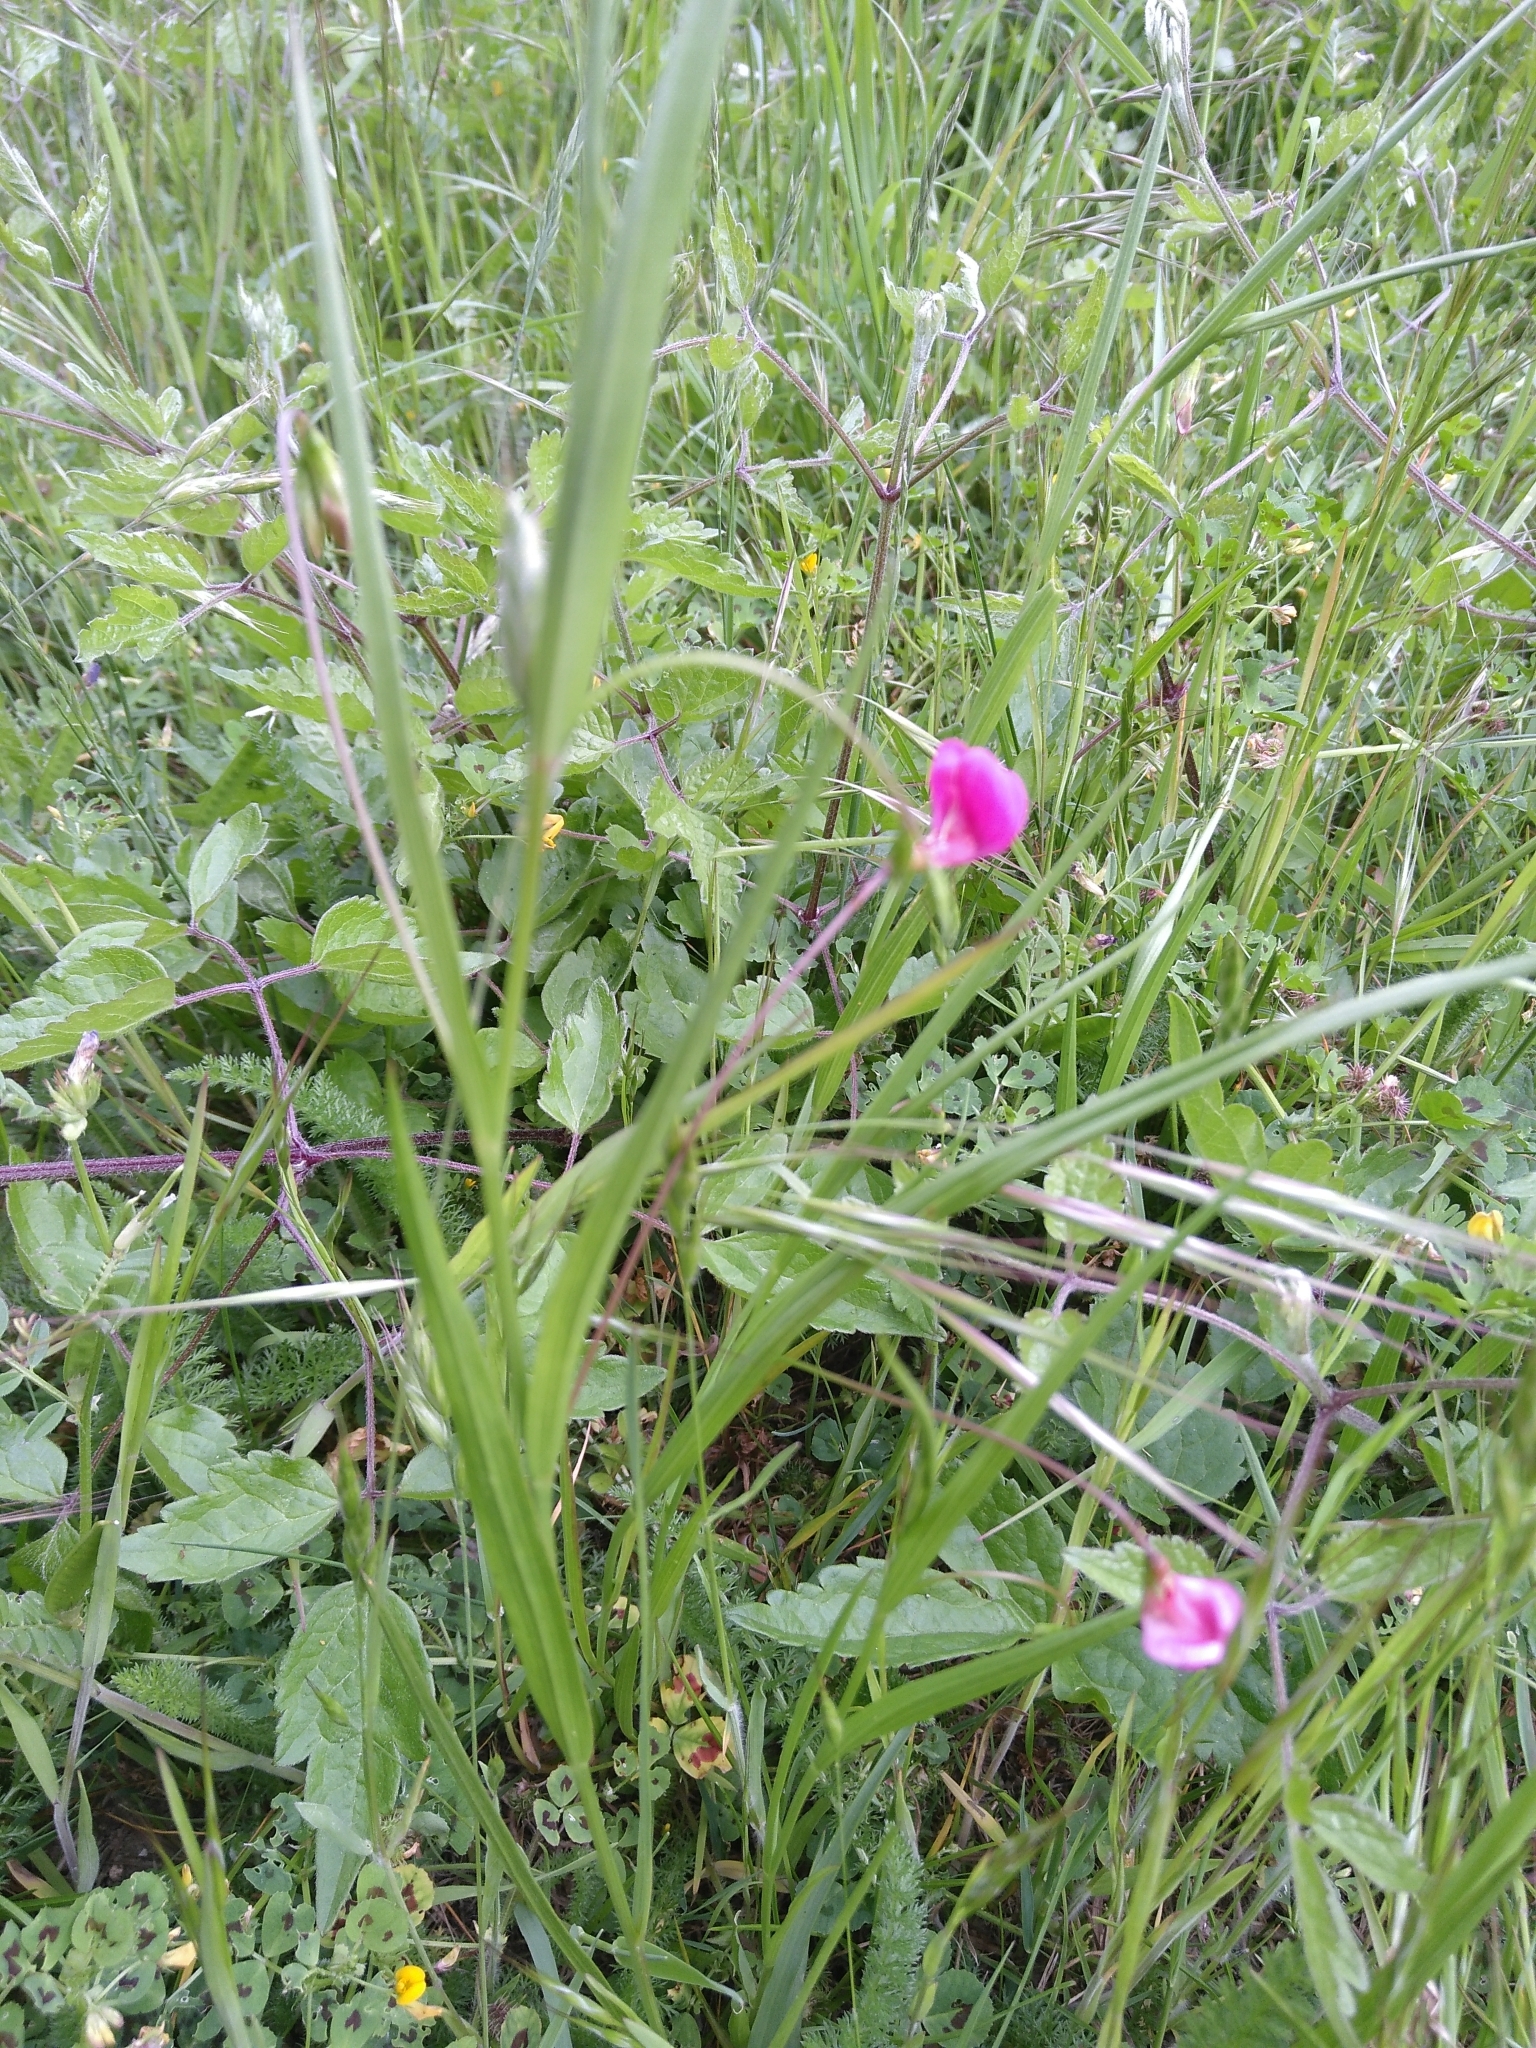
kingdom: Plantae
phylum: Tracheophyta
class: Magnoliopsida
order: Fabales
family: Fabaceae
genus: Lathyrus
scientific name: Lathyrus nissolia
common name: Grass vetchling
